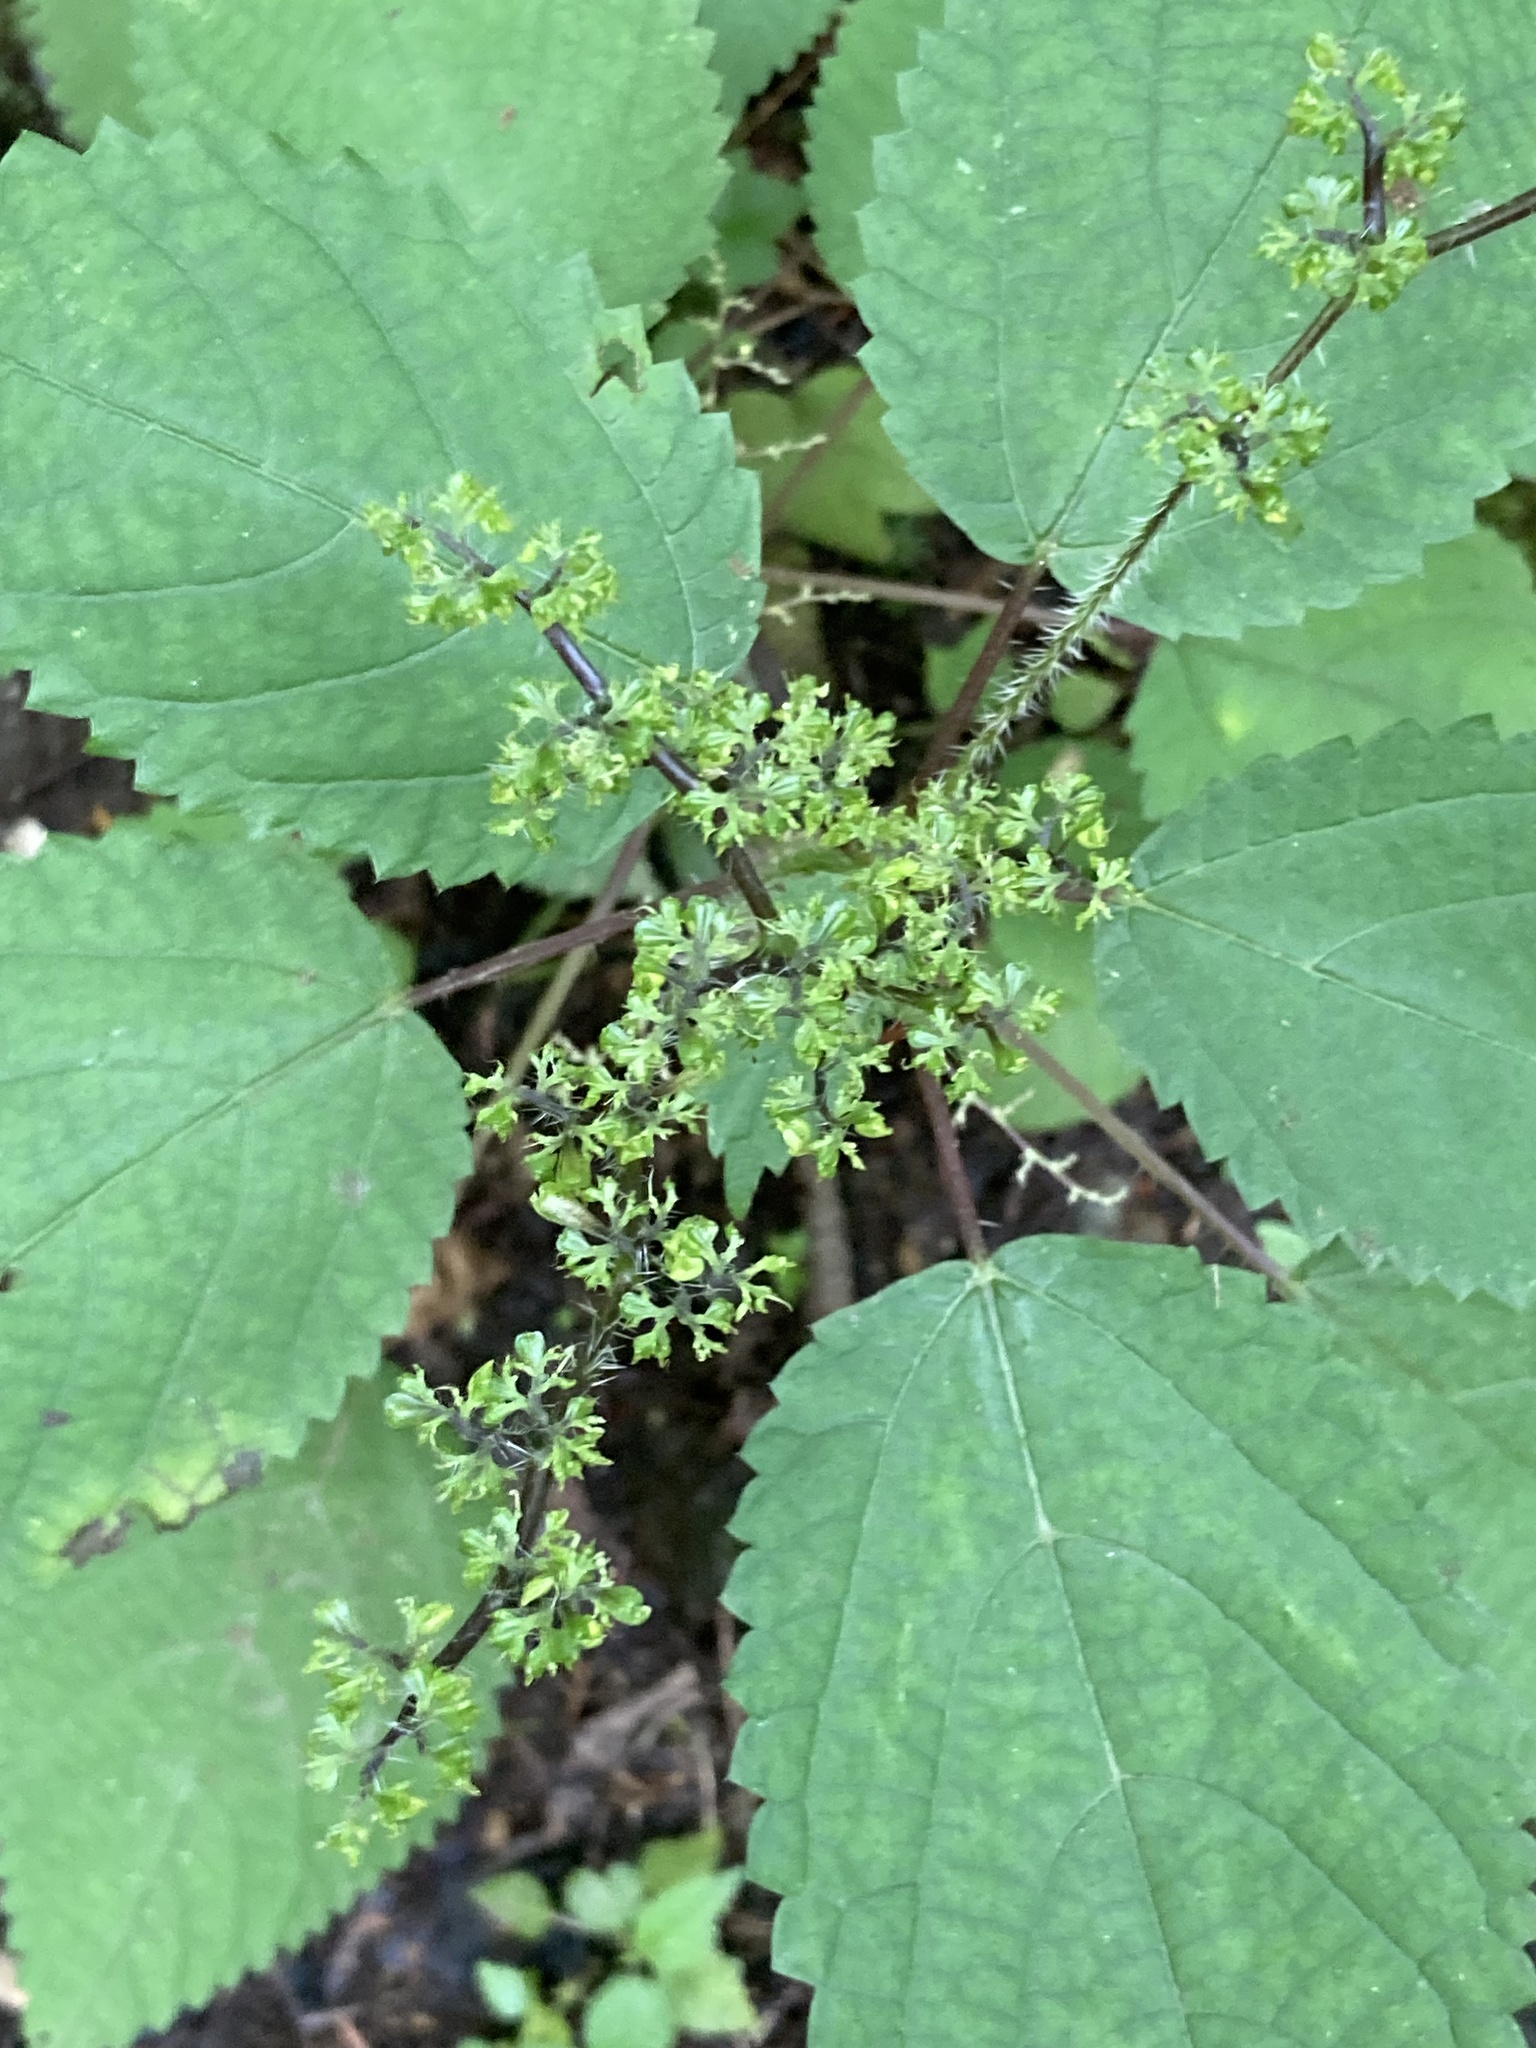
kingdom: Plantae
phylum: Tracheophyta
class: Magnoliopsida
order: Rosales
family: Urticaceae
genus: Laportea
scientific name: Laportea canadensis
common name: Canada nettle
